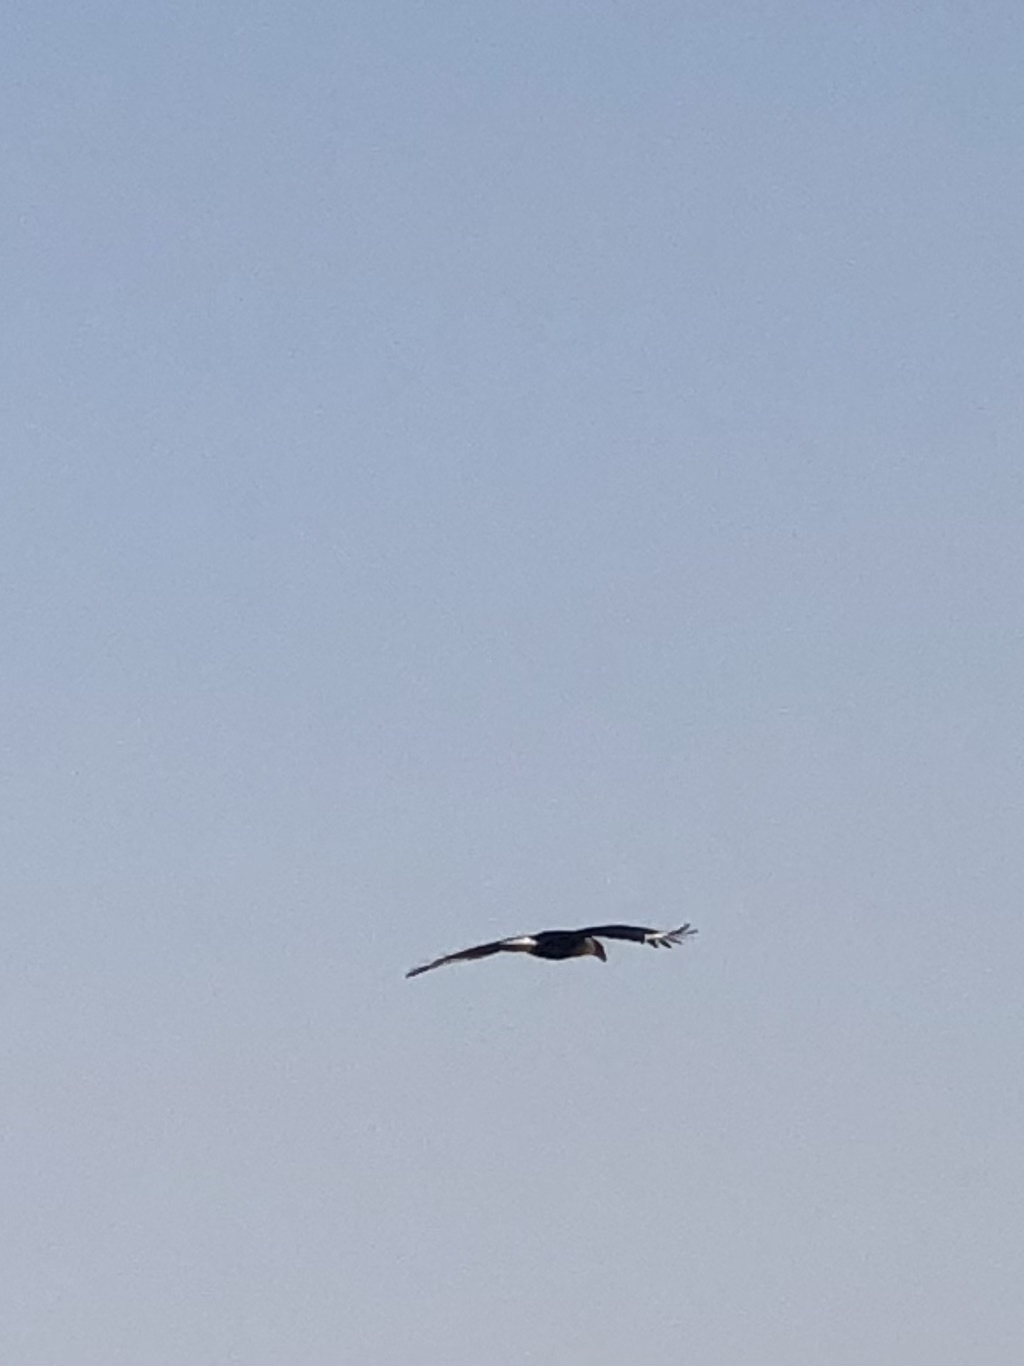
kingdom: Animalia
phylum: Chordata
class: Aves
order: Falconiformes
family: Falconidae
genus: Caracara
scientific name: Caracara plancus
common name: Southern caracara
